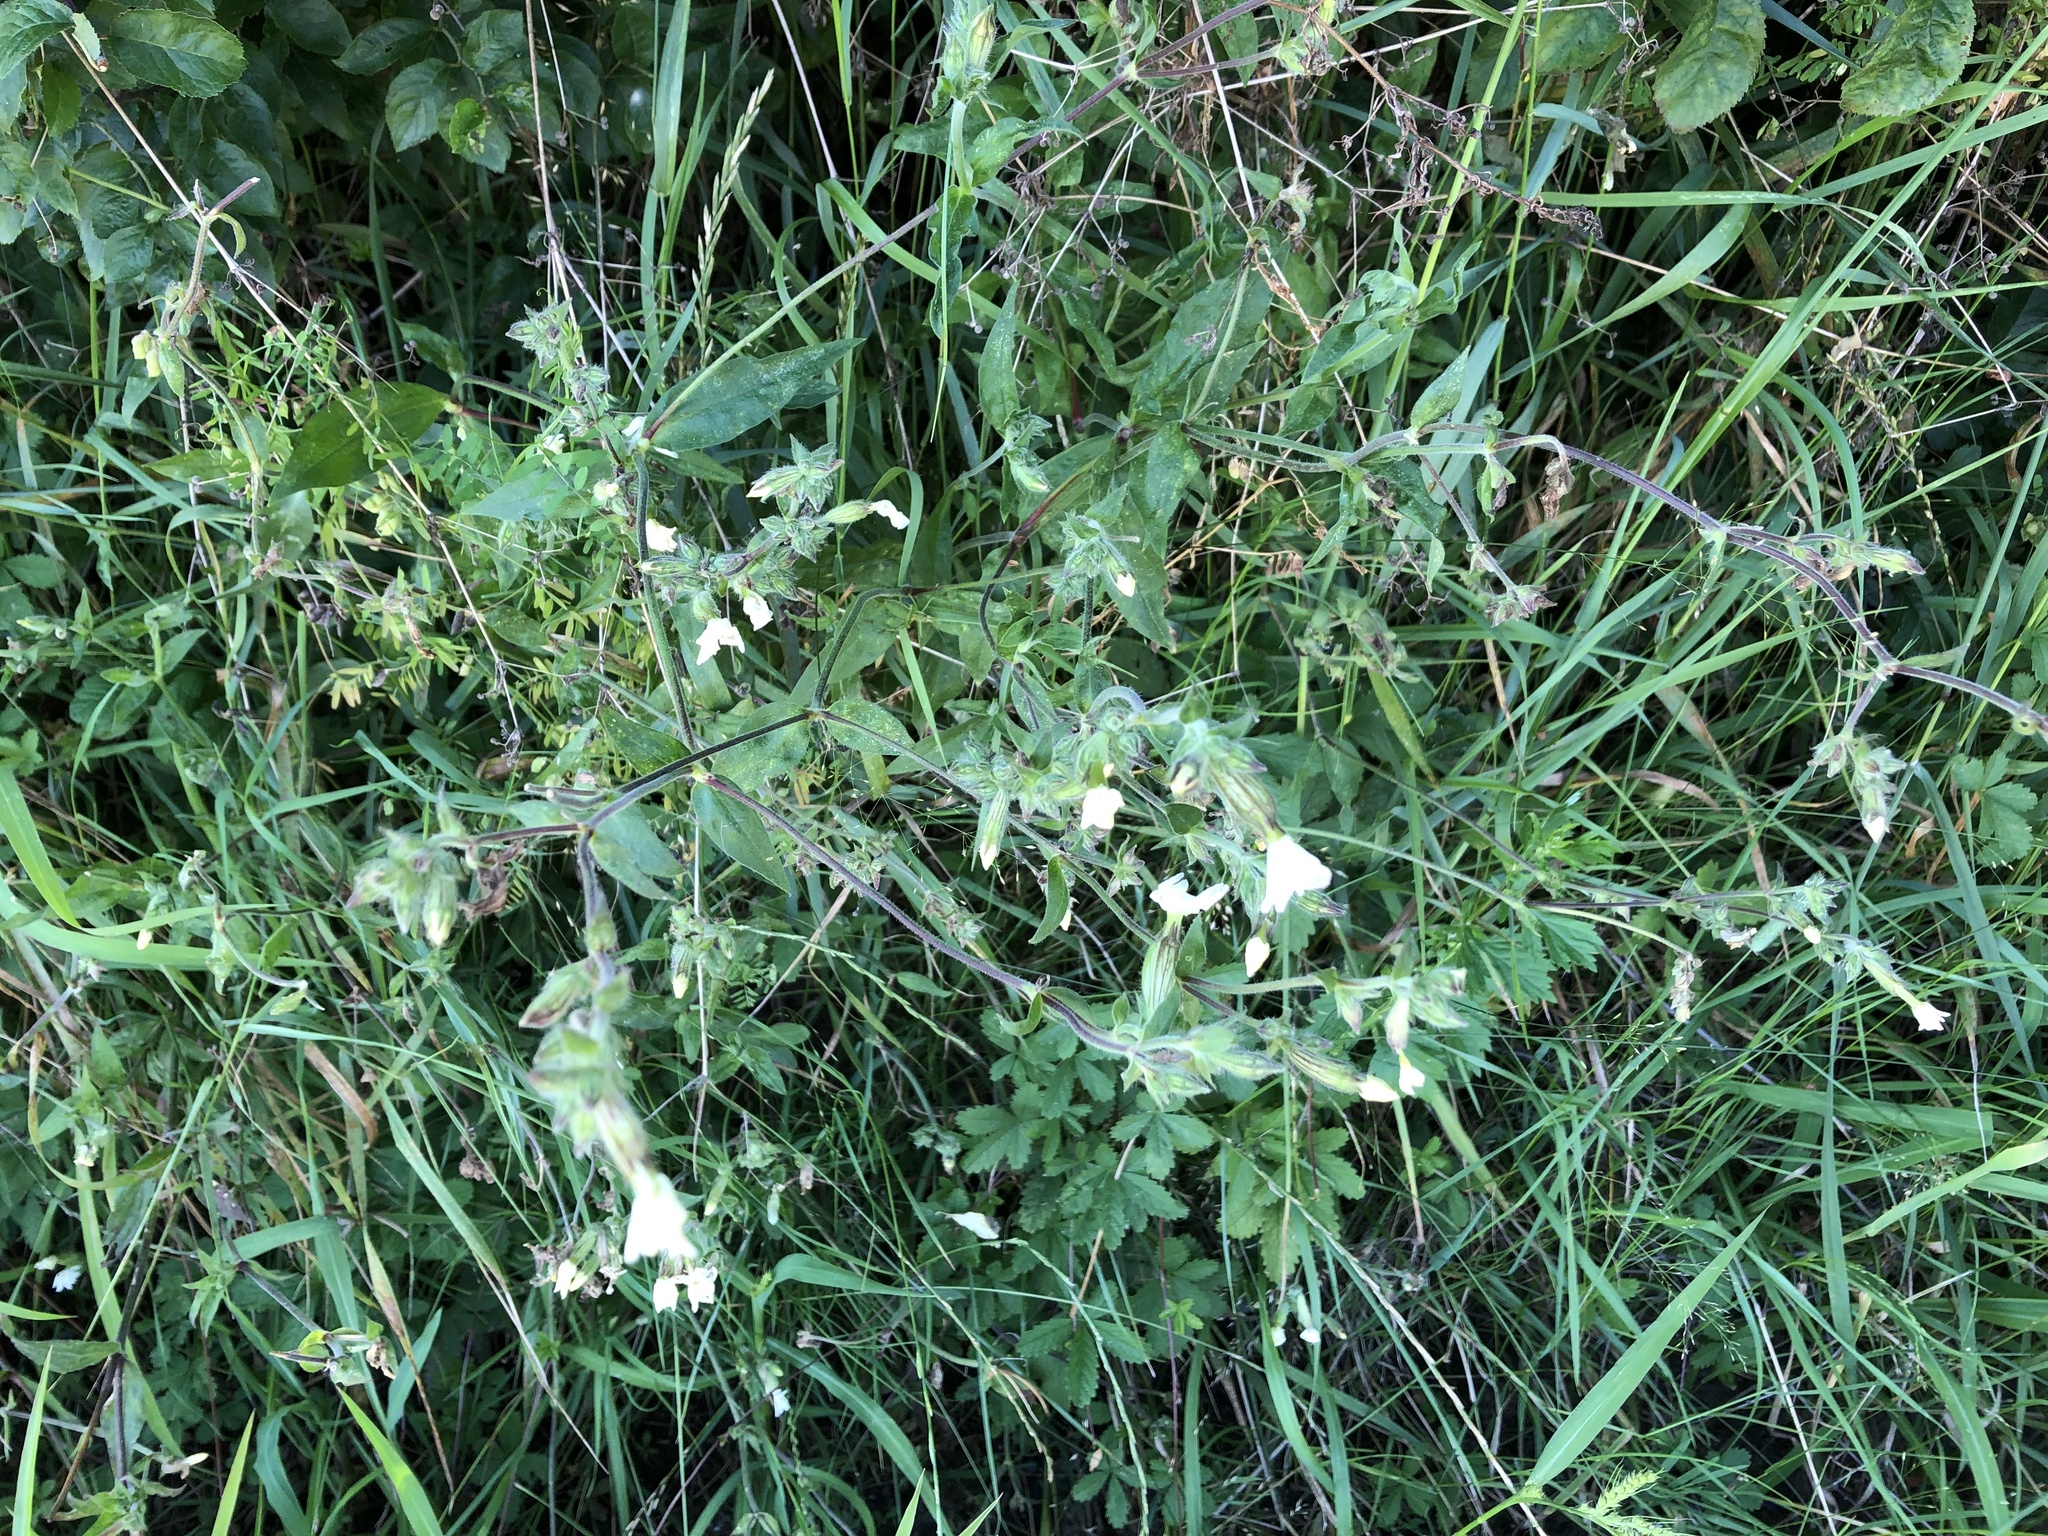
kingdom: Plantae
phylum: Tracheophyta
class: Magnoliopsida
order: Caryophyllales
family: Caryophyllaceae
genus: Silene
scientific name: Silene latifolia
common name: White campion
